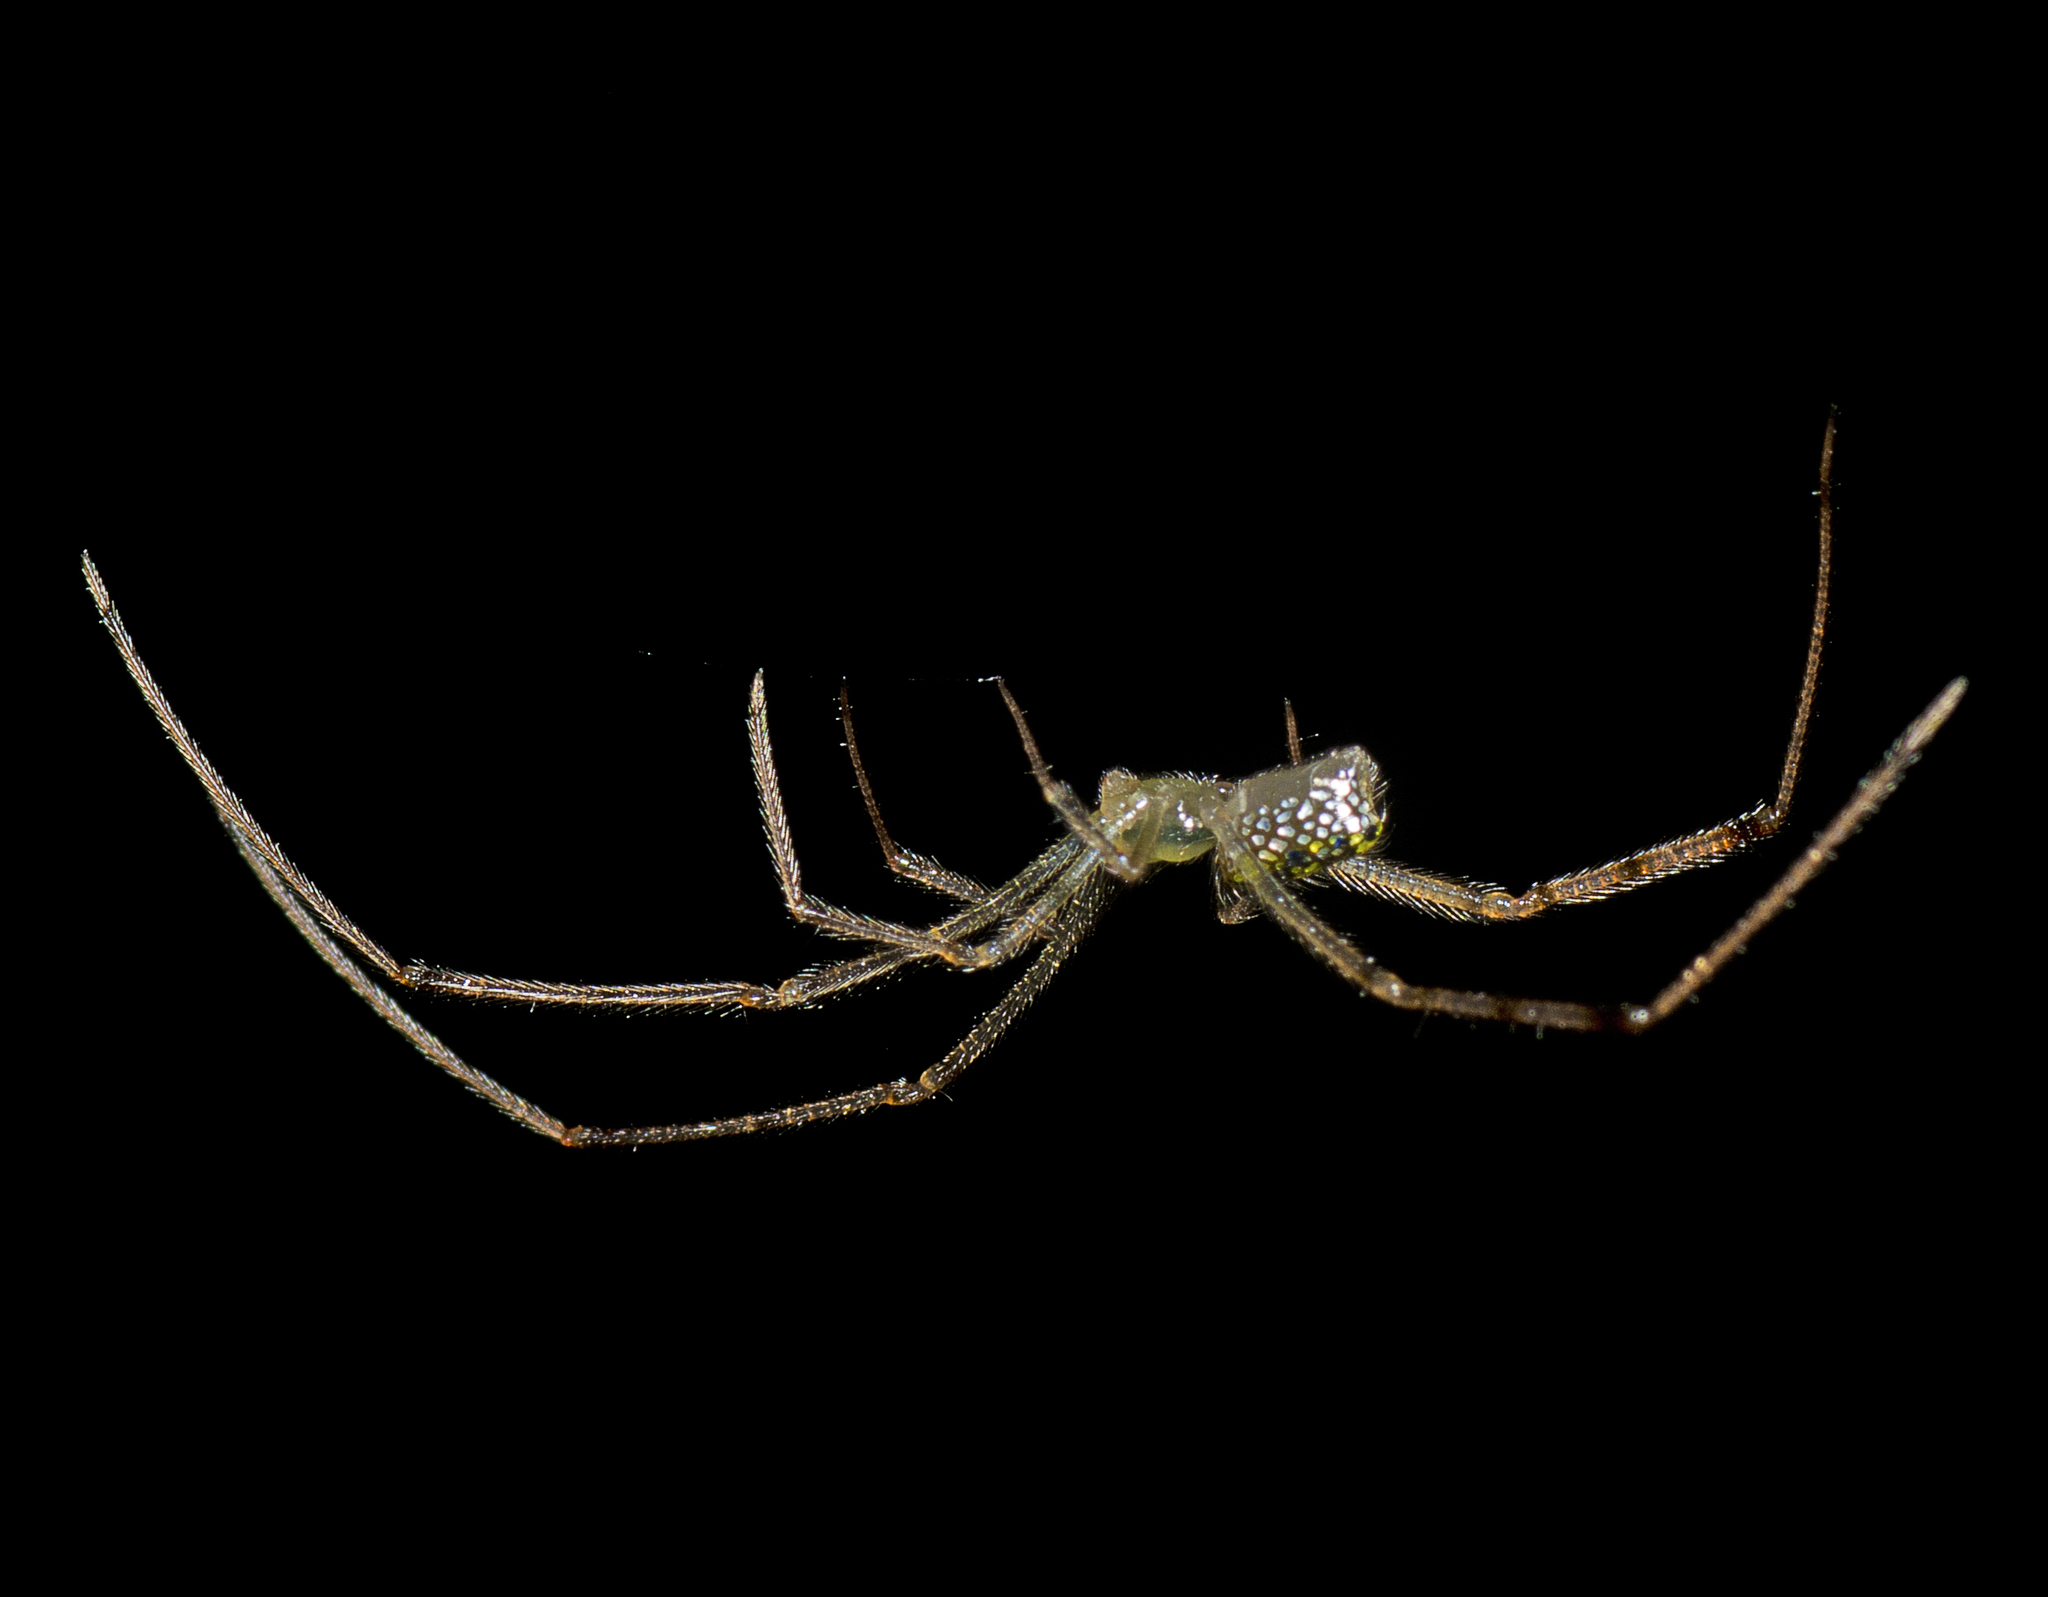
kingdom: Animalia
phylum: Arthropoda
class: Arachnida
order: Araneae
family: Theridiidae
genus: Thwaitesia
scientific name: Thwaitesia nigronodosa
